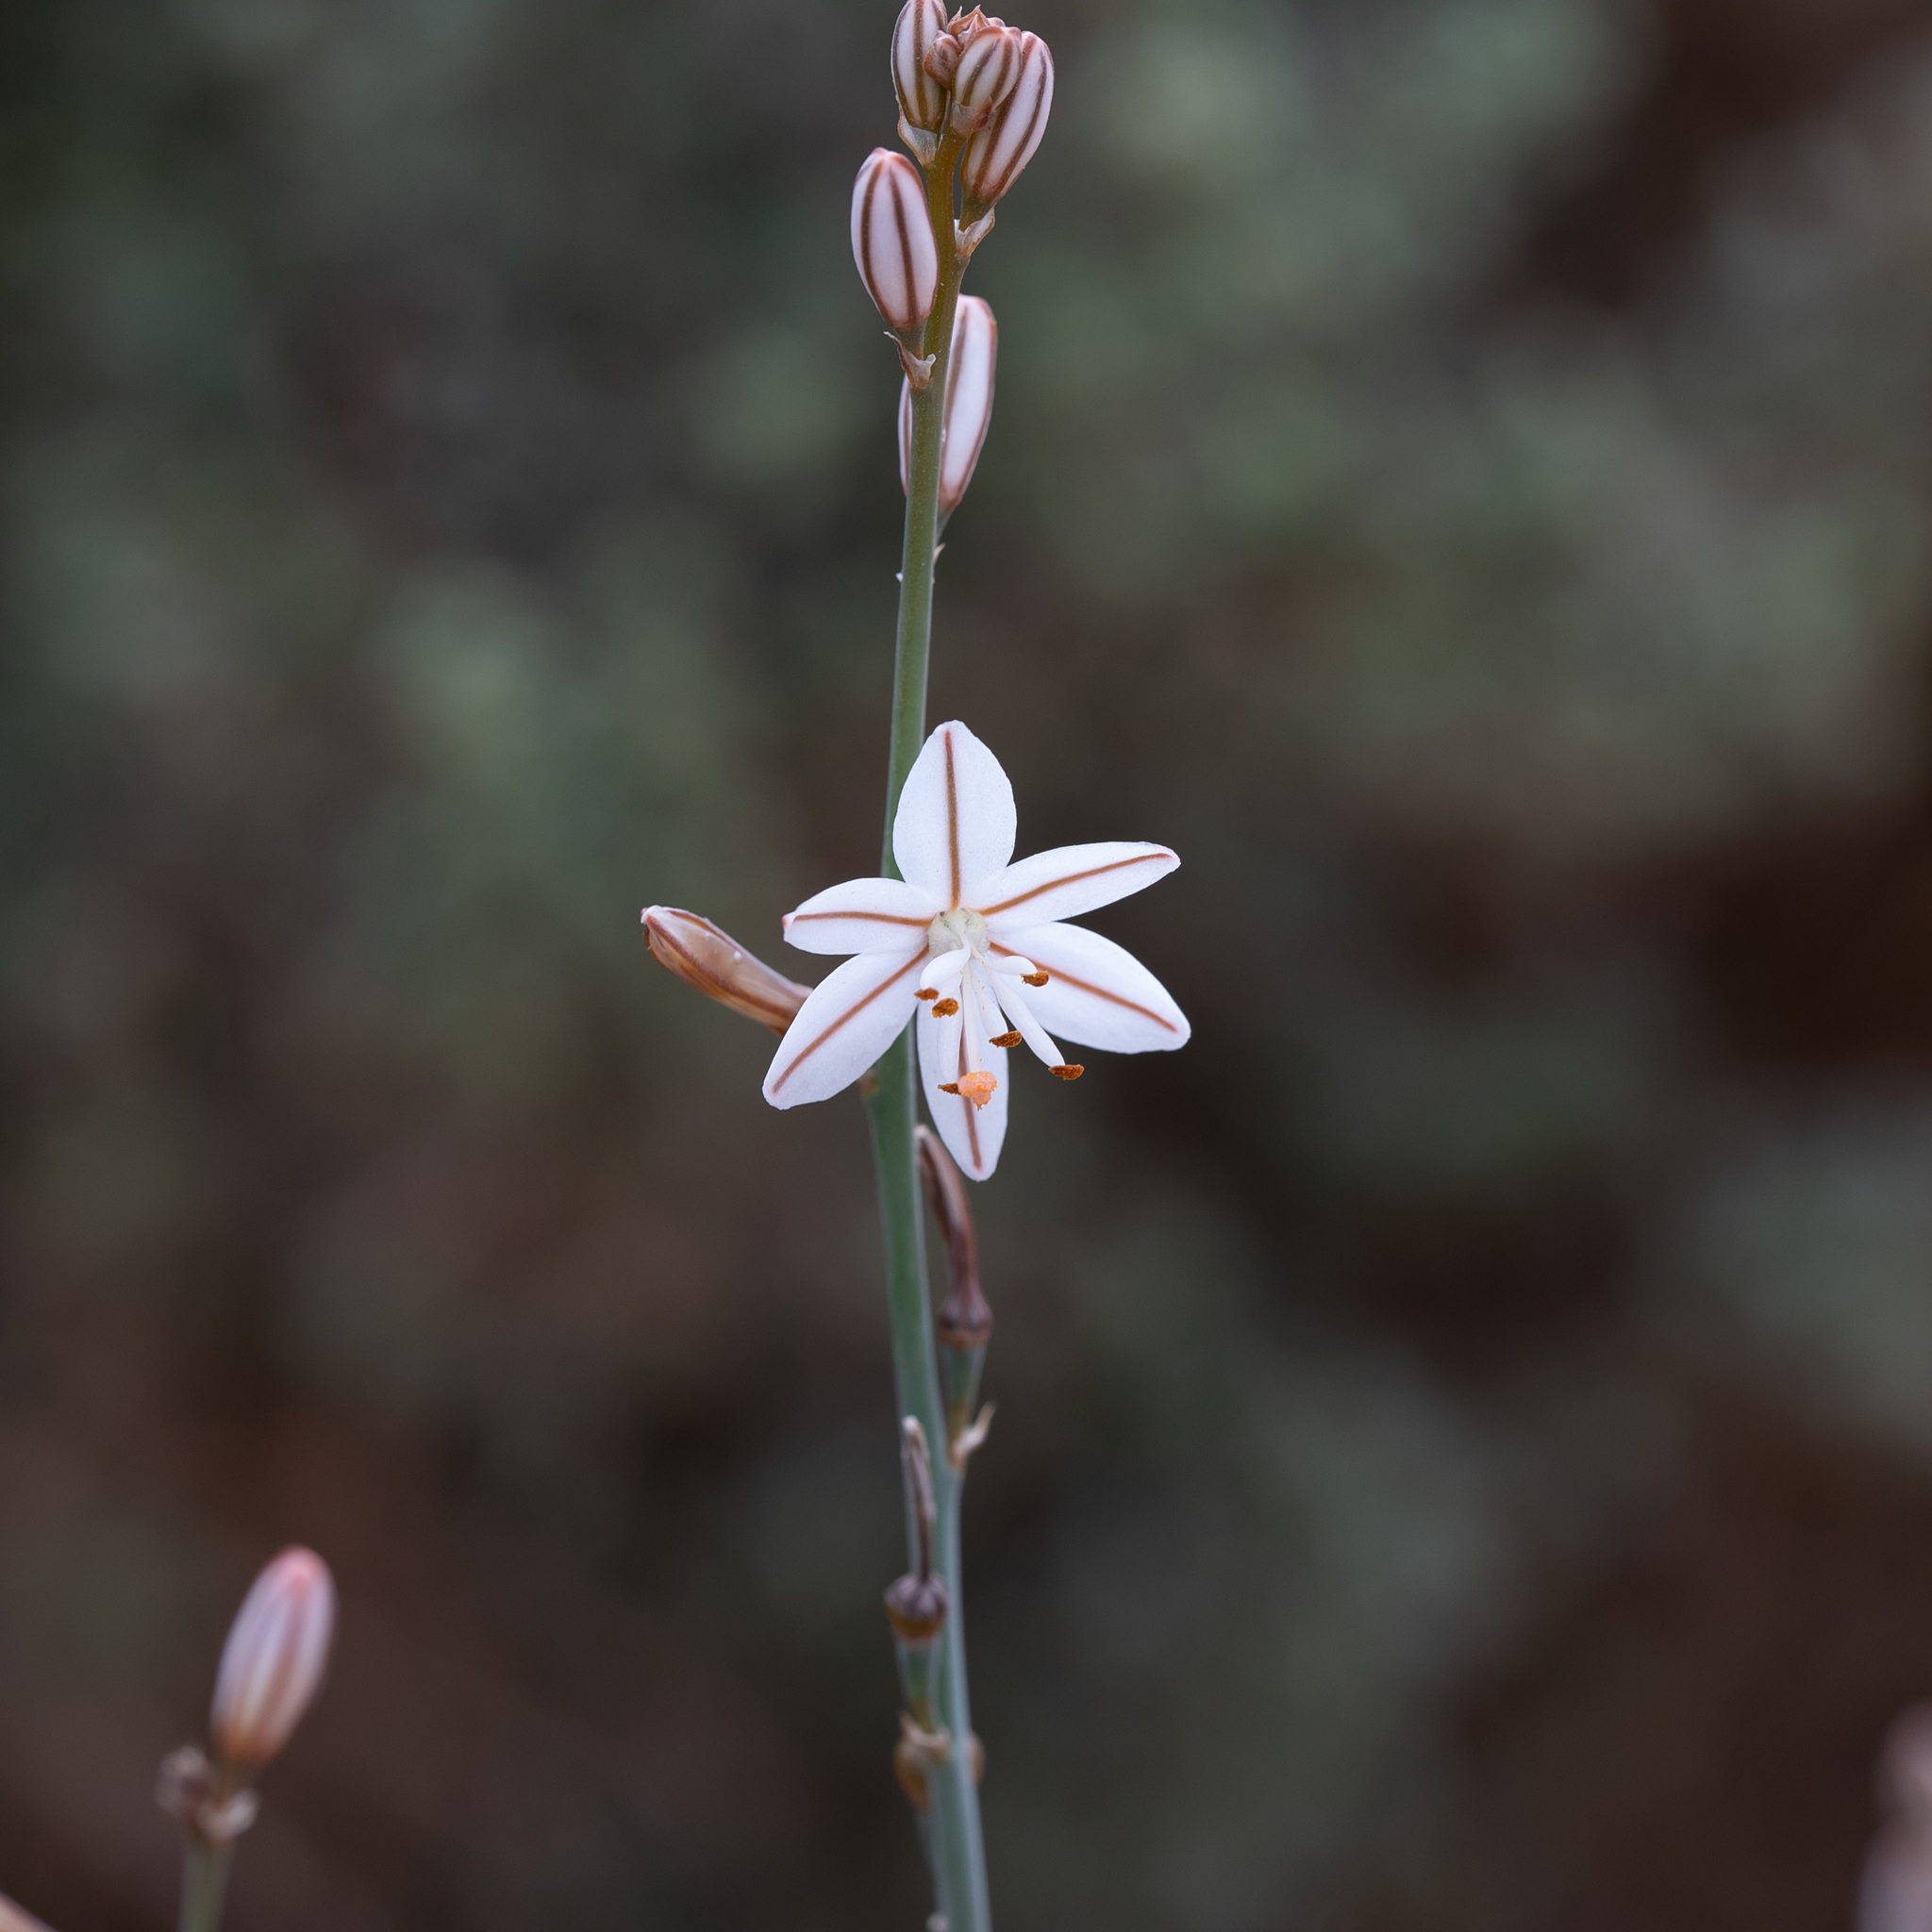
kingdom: Plantae
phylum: Tracheophyta
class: Liliopsida
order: Asparagales
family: Asphodelaceae
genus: Asphodelus
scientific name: Asphodelus fistulosus
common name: Onionweed
